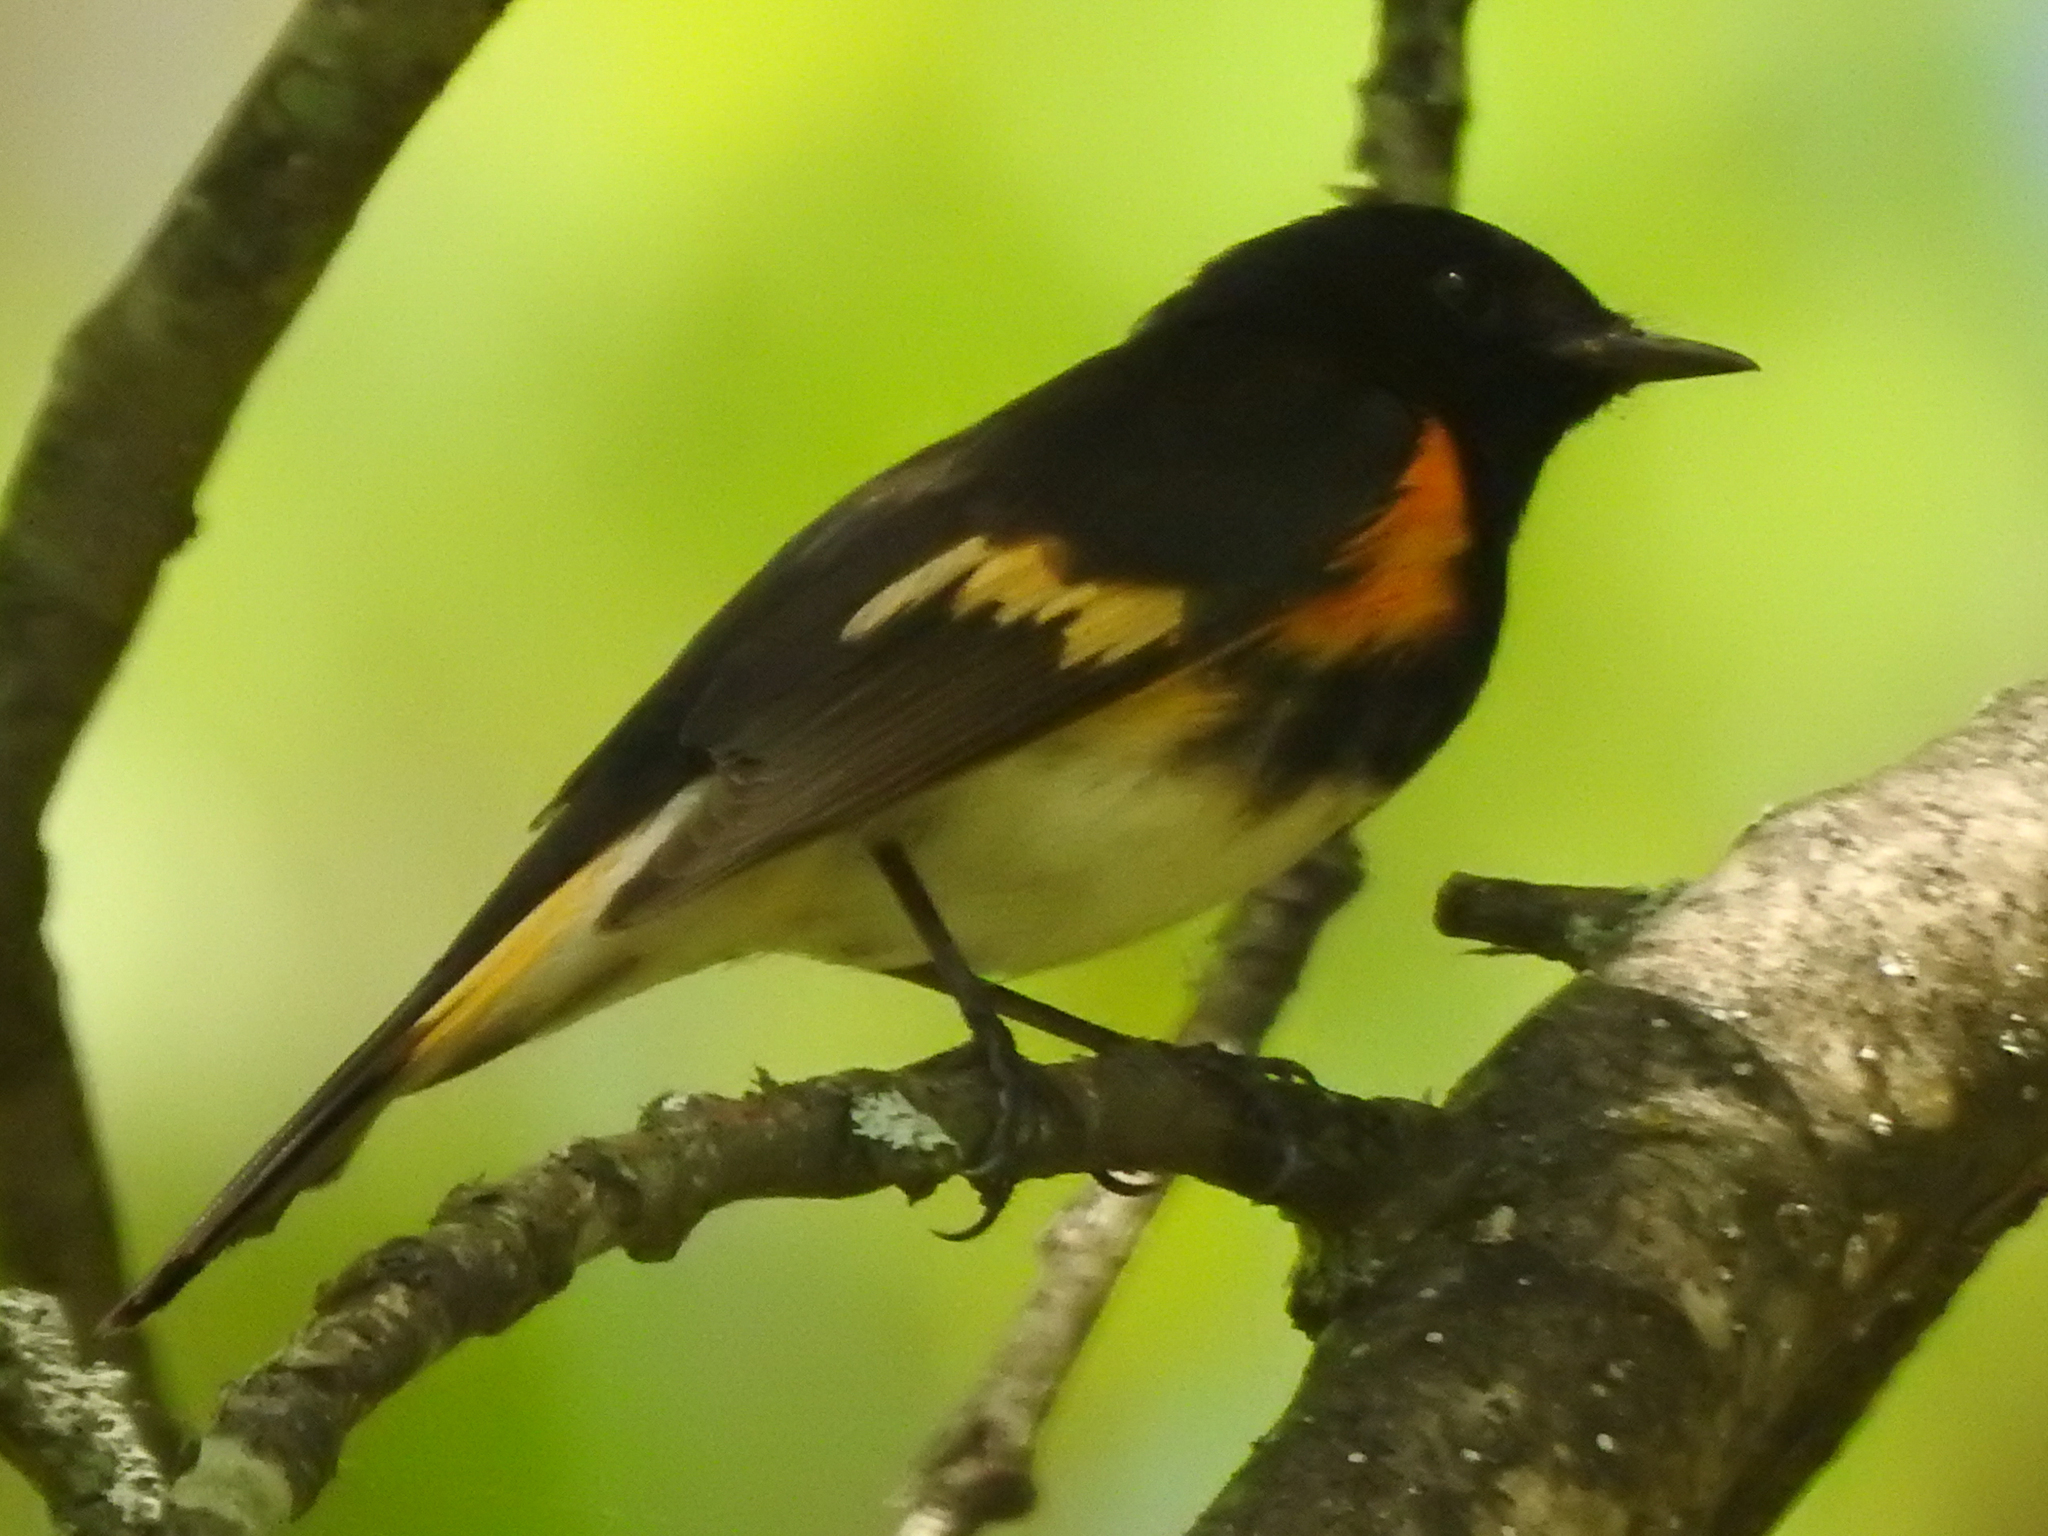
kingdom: Animalia
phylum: Chordata
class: Aves
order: Passeriformes
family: Parulidae
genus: Setophaga
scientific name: Setophaga ruticilla
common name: American redstart
